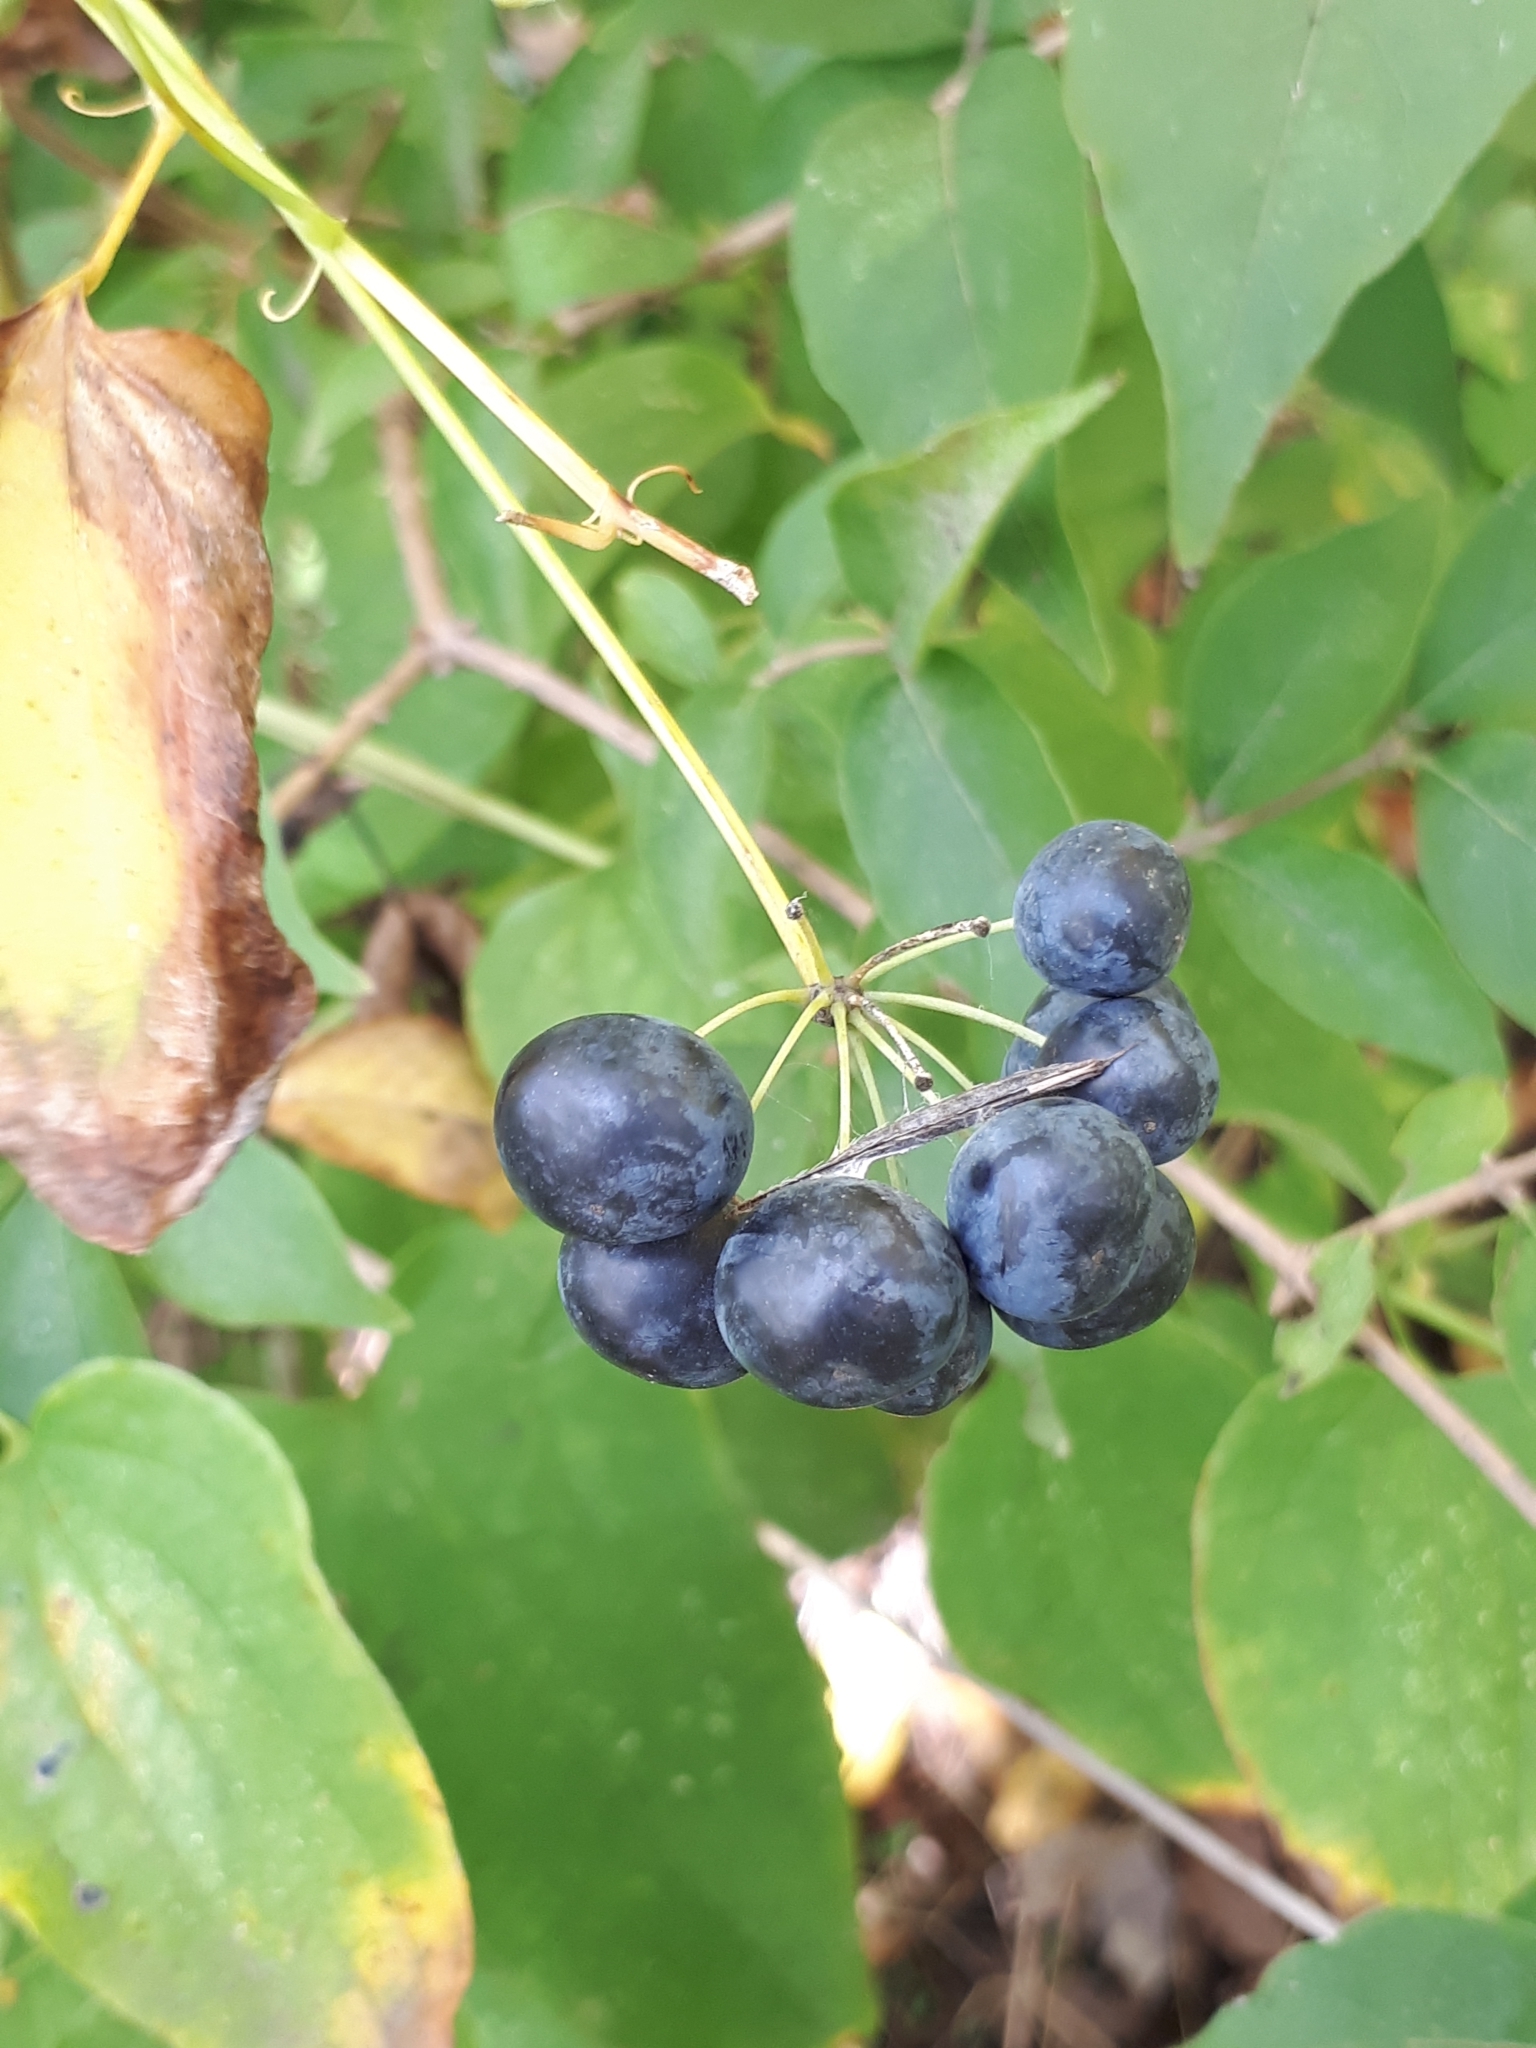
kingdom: Plantae
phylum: Tracheophyta
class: Liliopsida
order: Liliales
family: Smilacaceae
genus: Smilax
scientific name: Smilax herbacea
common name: Jacob's-ladder
